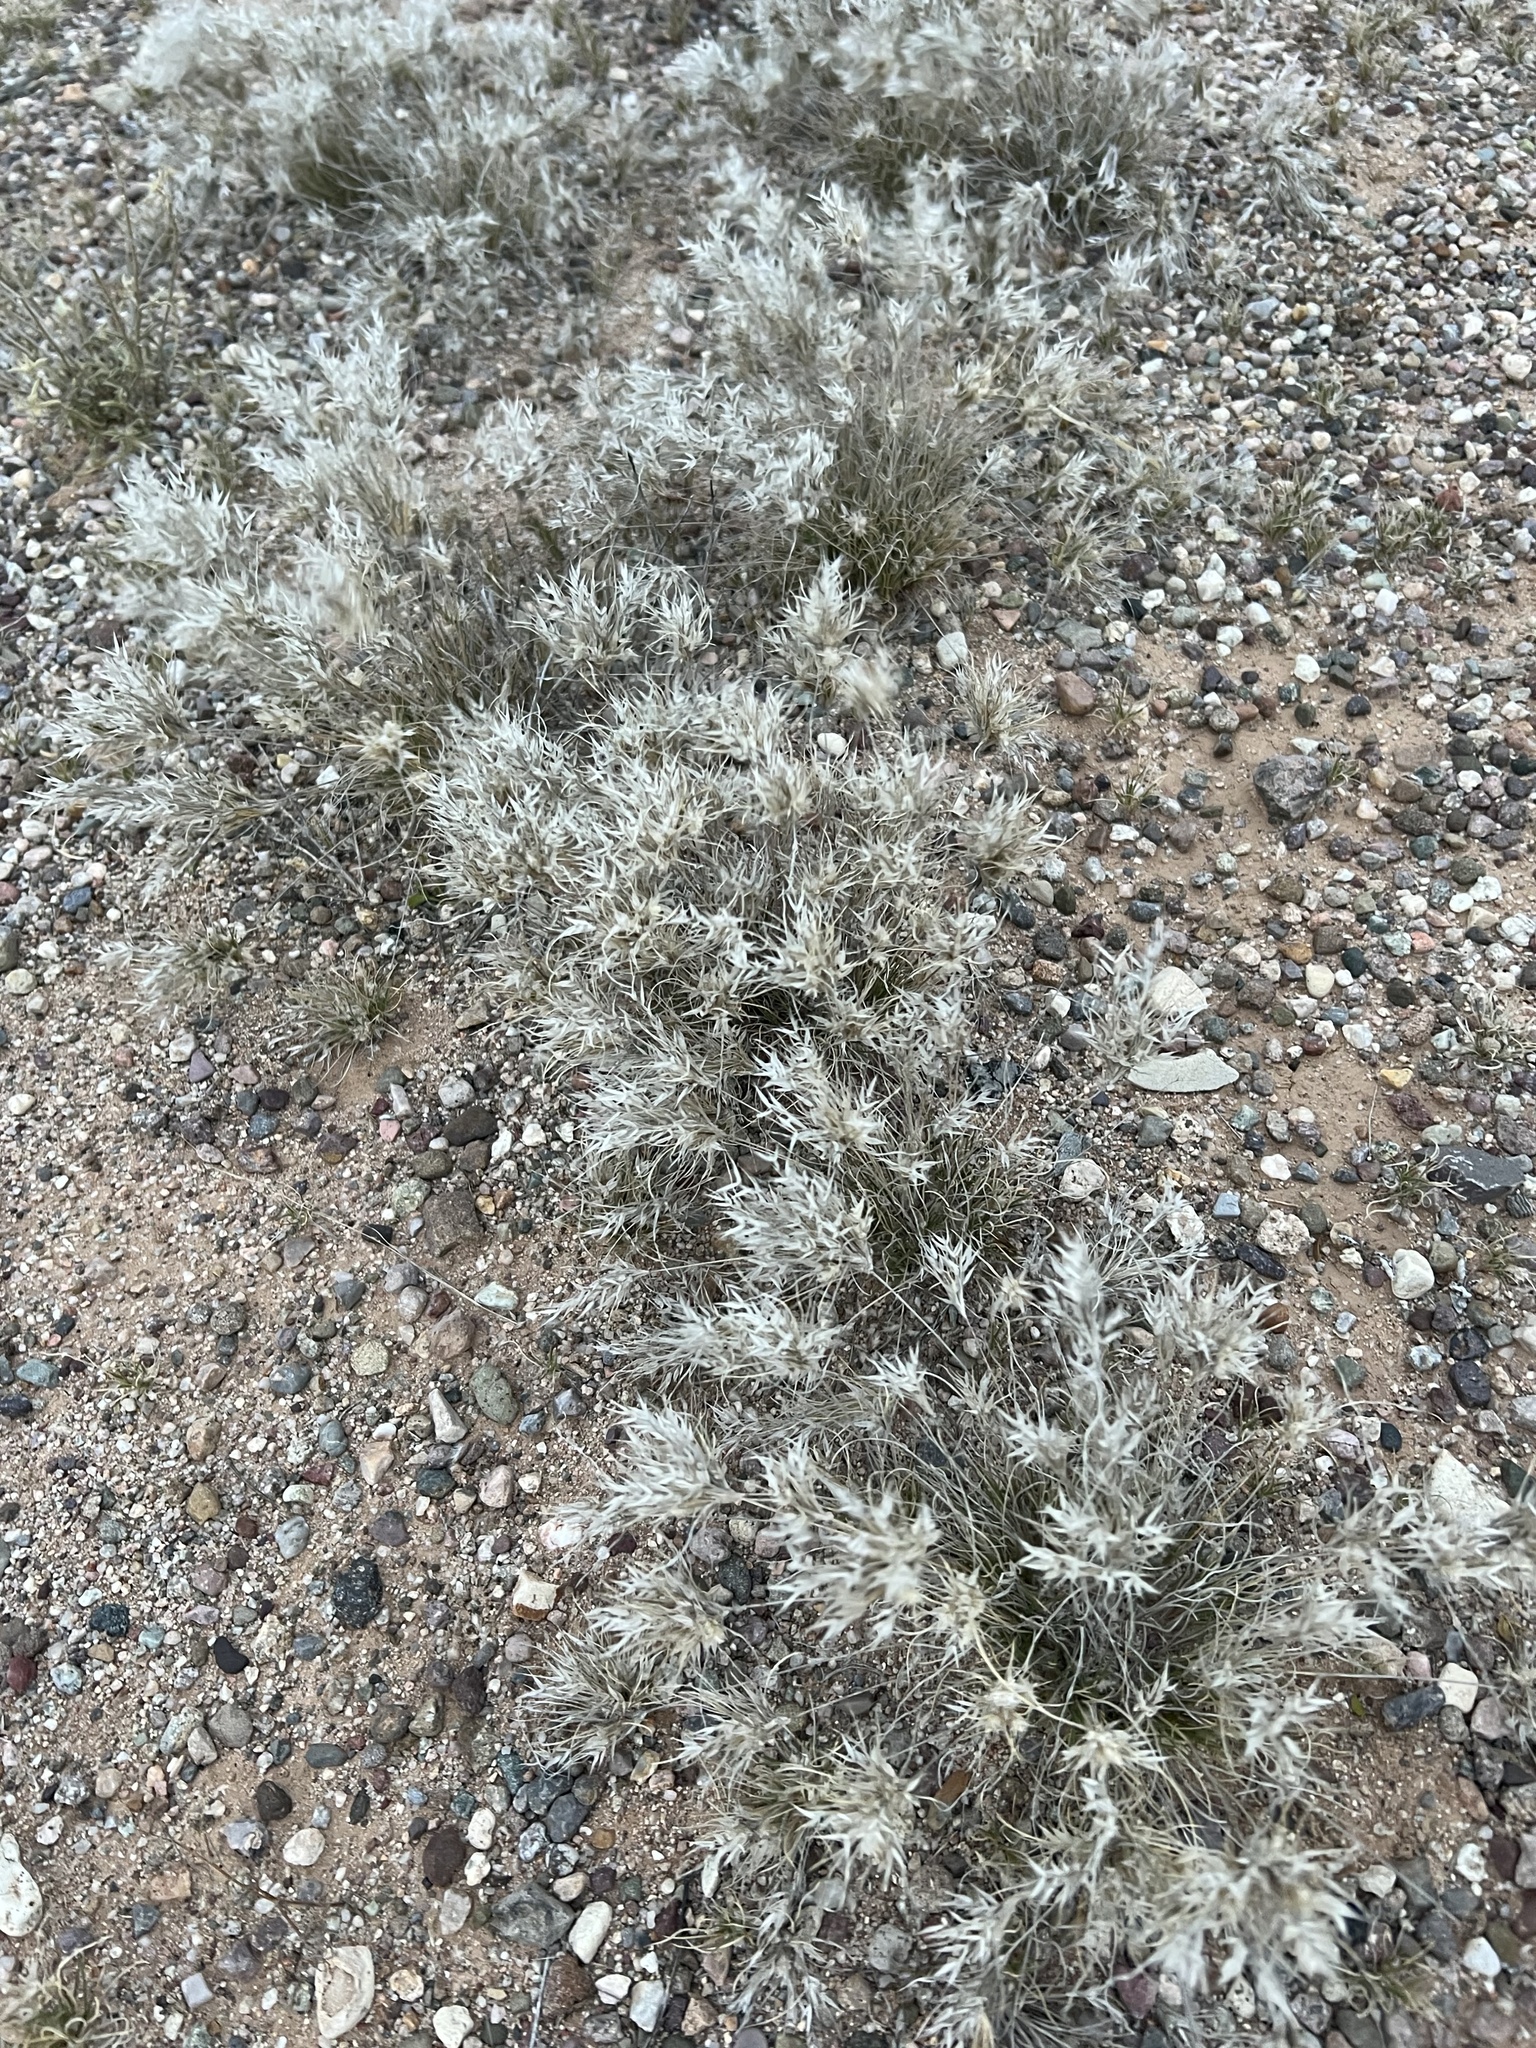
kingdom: Plantae
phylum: Tracheophyta
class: Liliopsida
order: Poales
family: Poaceae
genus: Dasyochloa
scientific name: Dasyochloa pulchella
